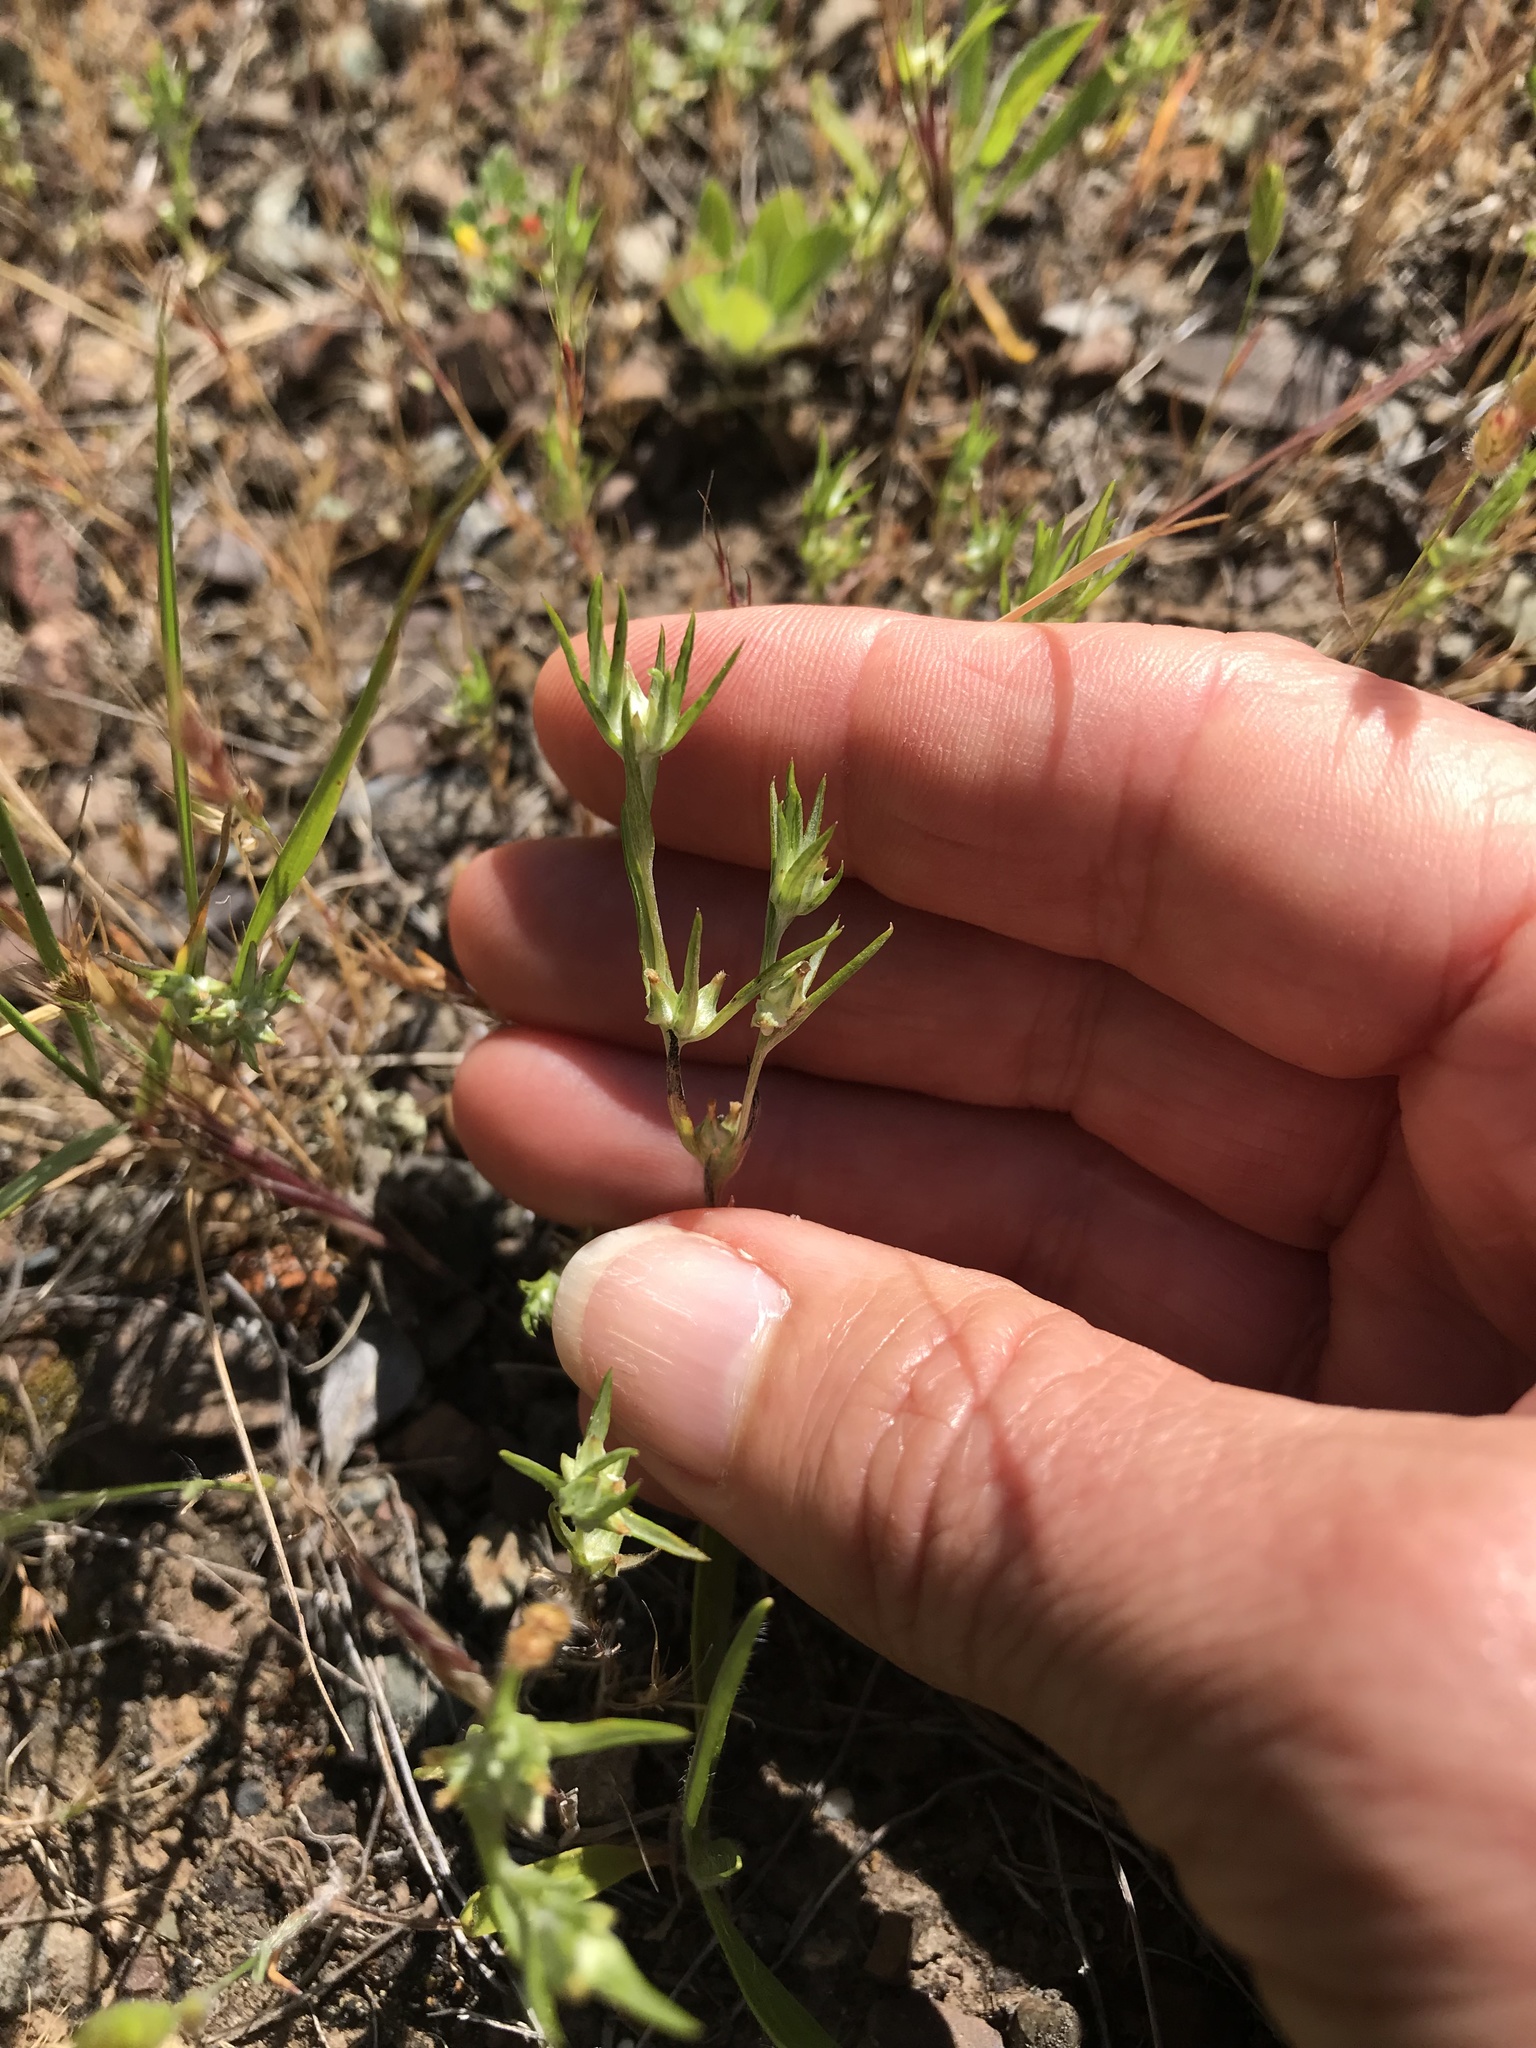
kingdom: Plantae
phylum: Tracheophyta
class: Magnoliopsida
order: Asterales
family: Asteraceae
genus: Logfia
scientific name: Logfia gallica
